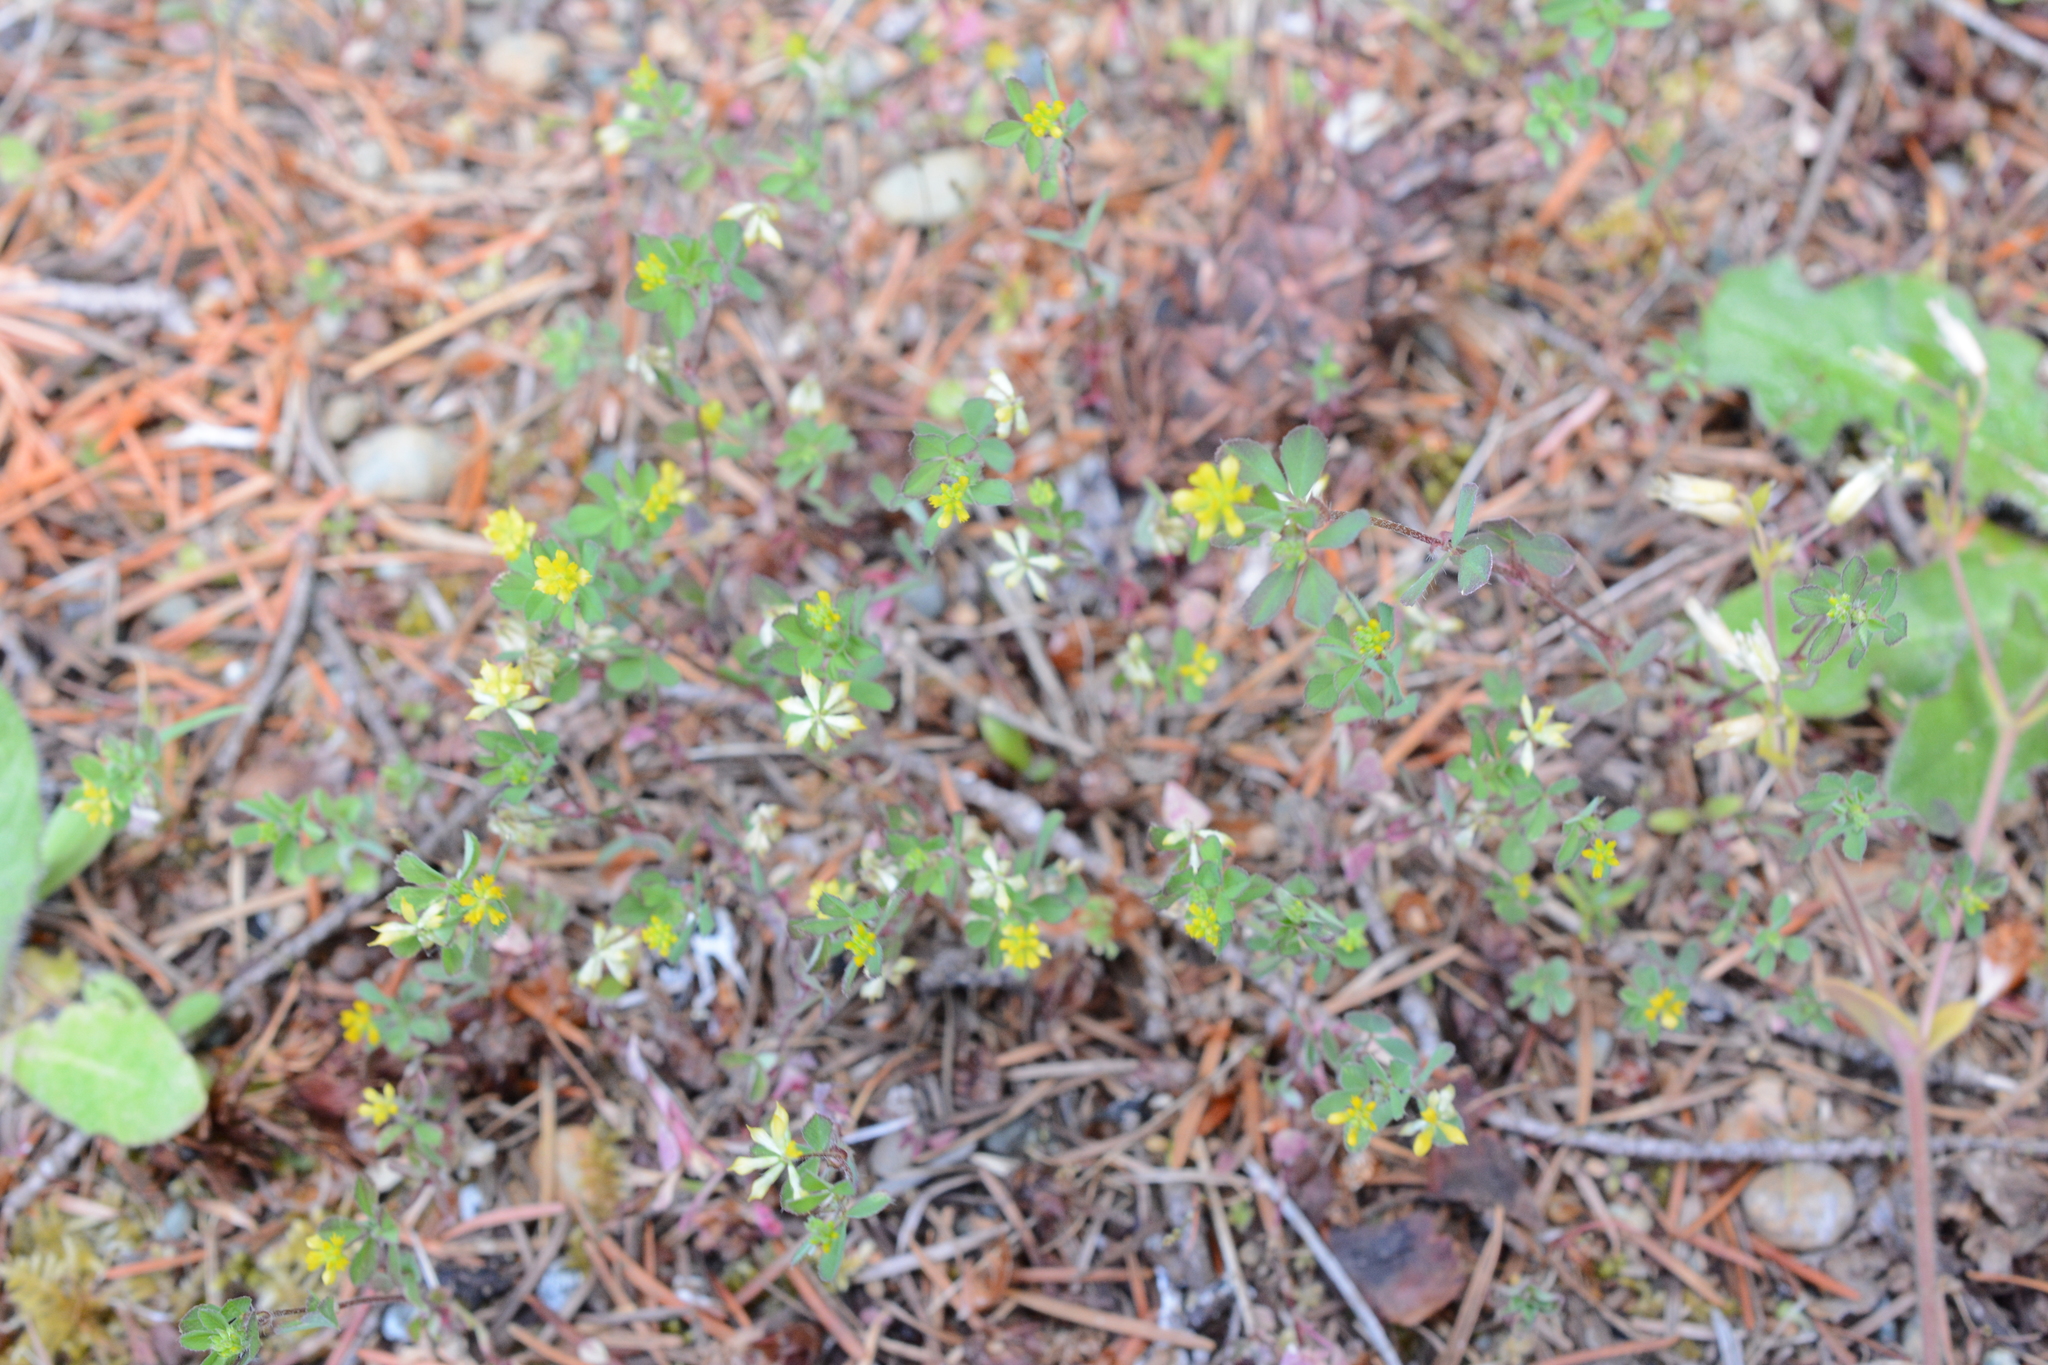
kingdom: Plantae
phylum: Tracheophyta
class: Magnoliopsida
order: Fabales
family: Fabaceae
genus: Trifolium
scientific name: Trifolium dubium
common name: Suckling clover
